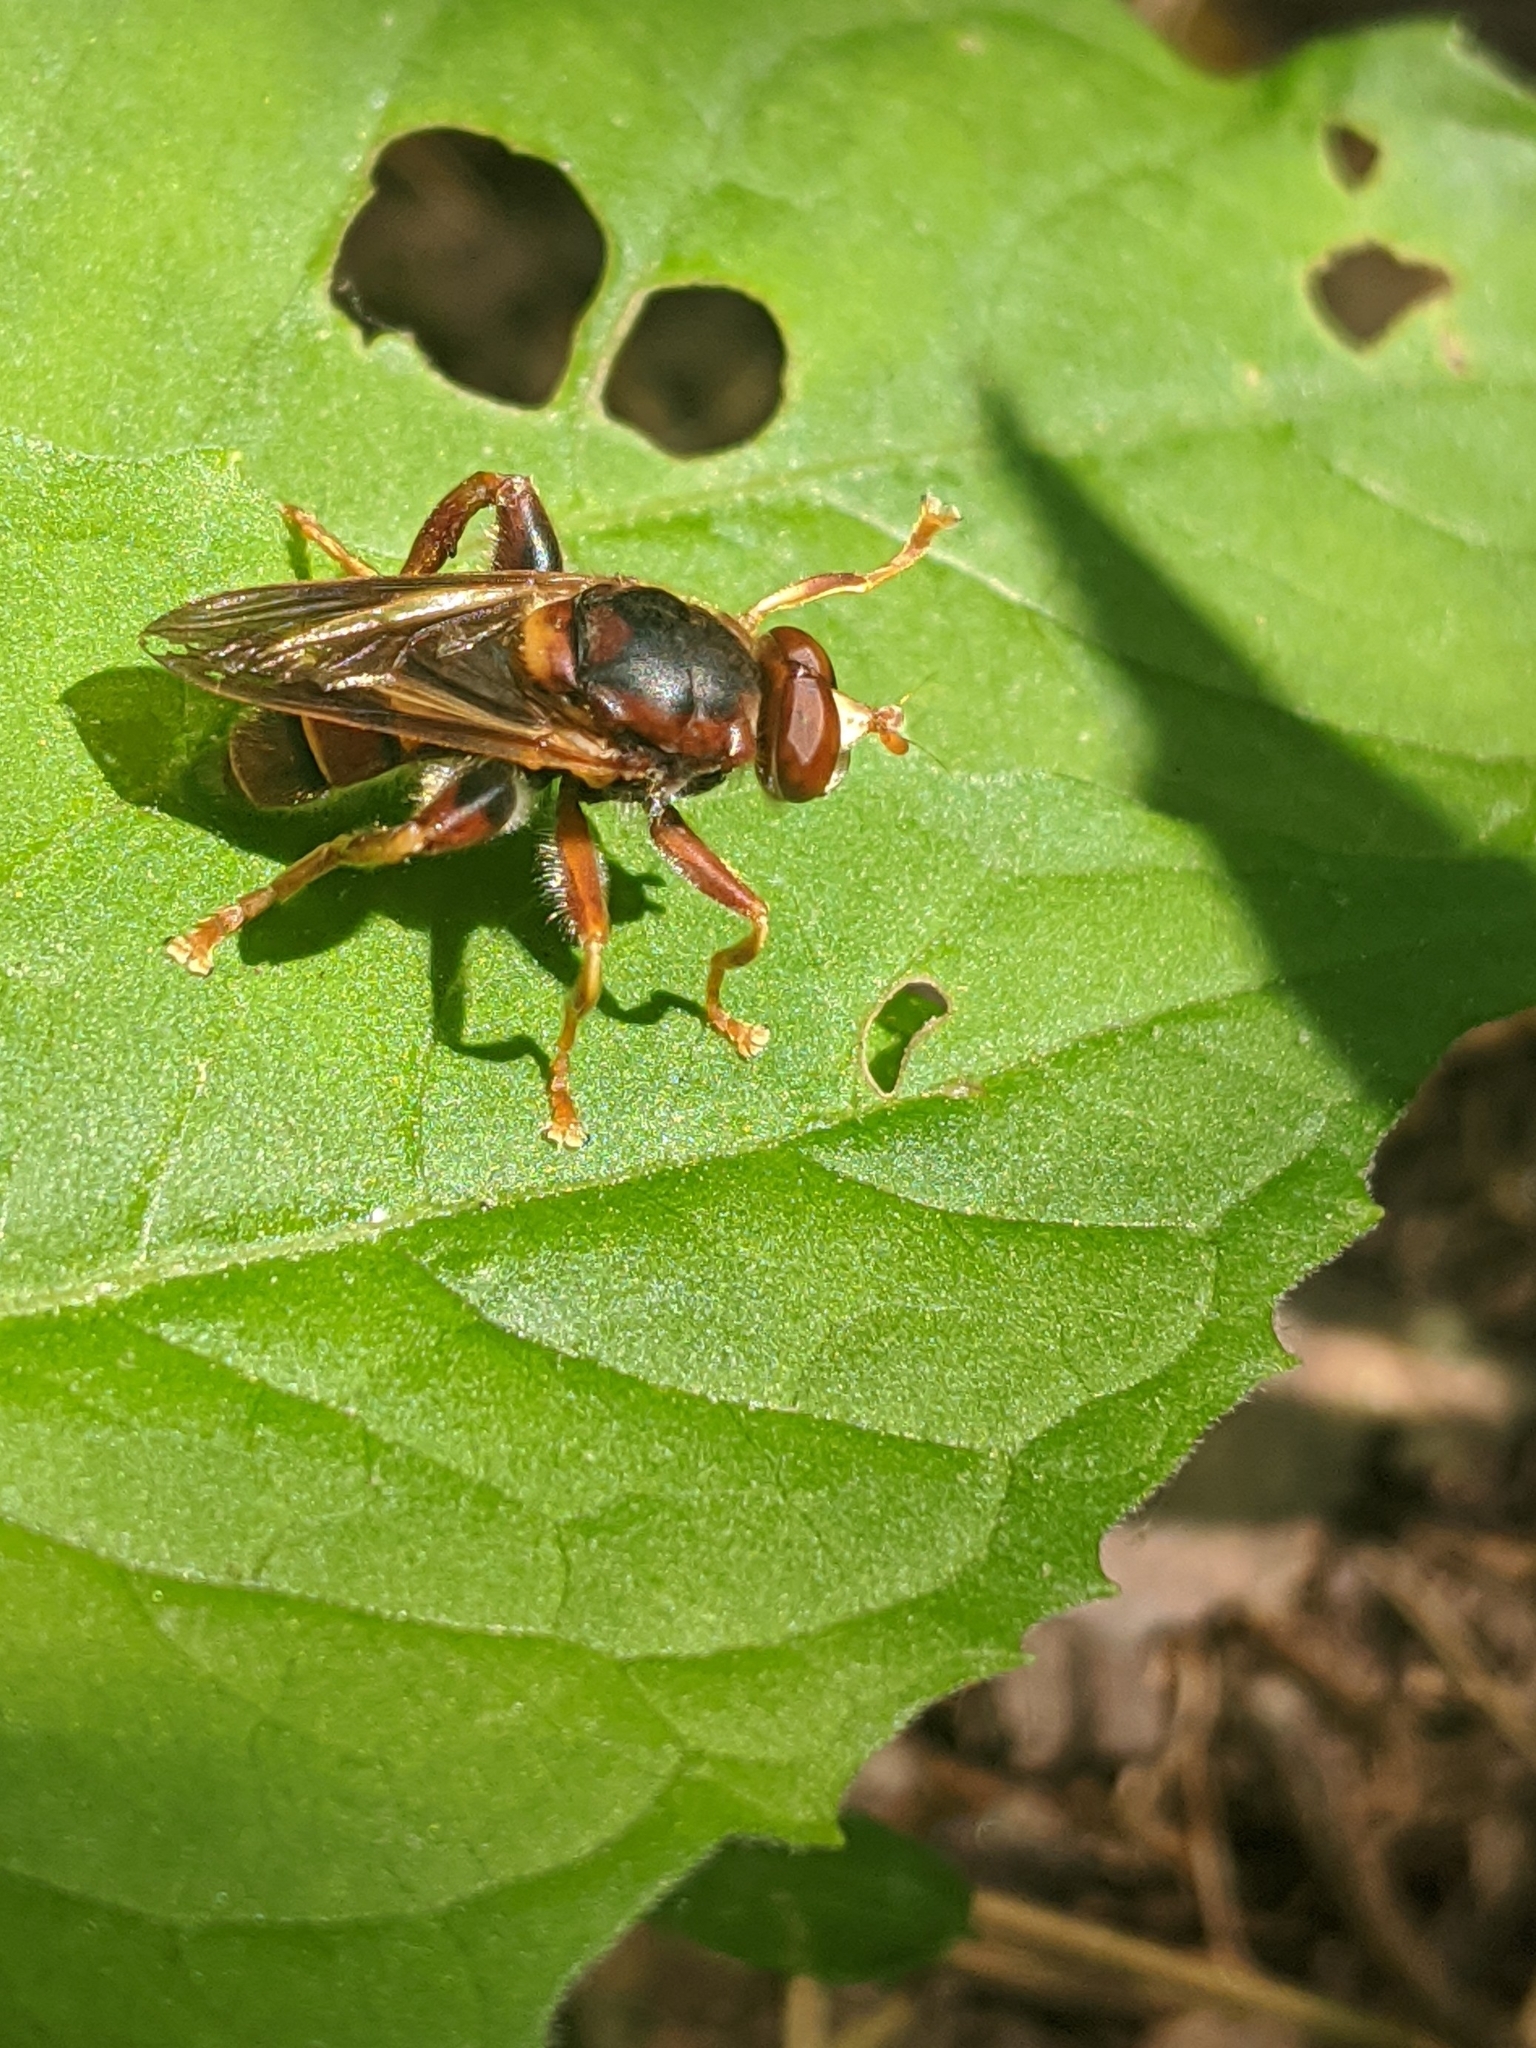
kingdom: Animalia
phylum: Arthropoda
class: Insecta
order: Diptera
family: Syrphidae
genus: Teuchocnemis
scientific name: Teuchocnemis bacuntius
